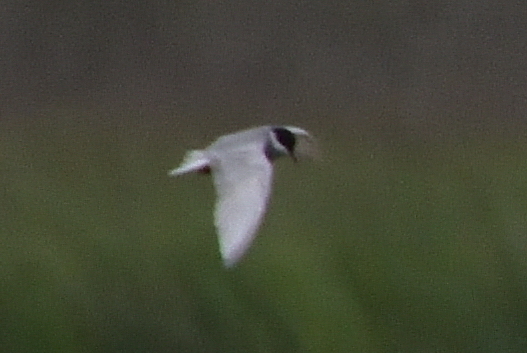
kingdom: Animalia
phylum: Chordata
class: Aves
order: Charadriiformes
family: Laridae
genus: Chlidonias
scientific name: Chlidonias hybrida
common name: Whiskered tern
